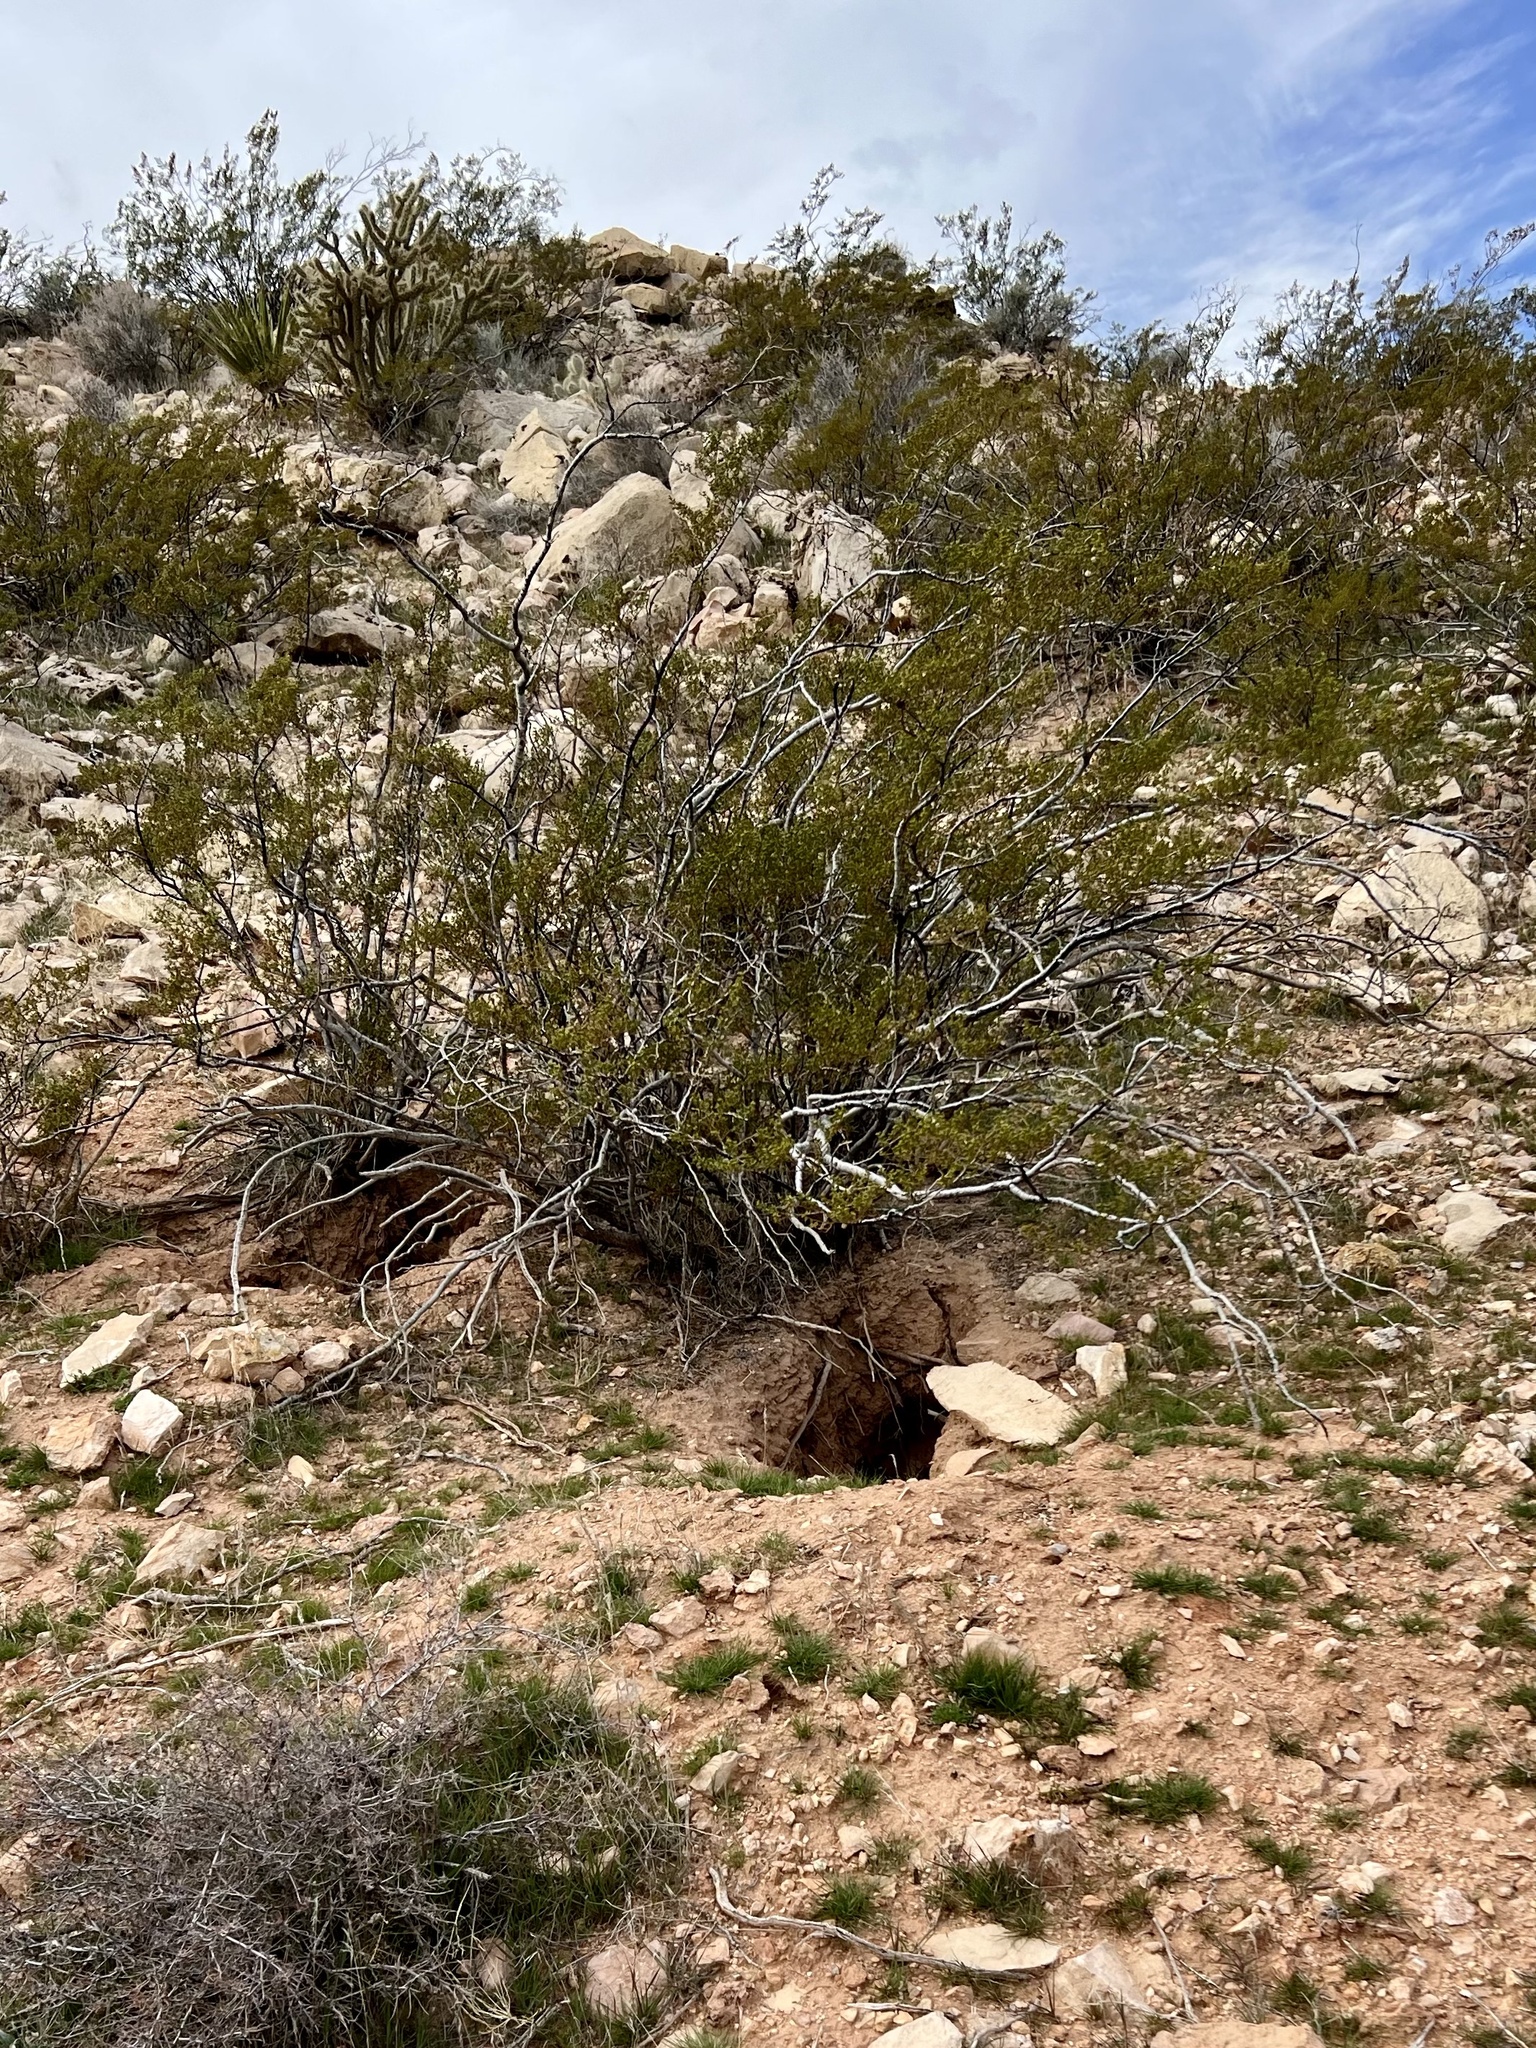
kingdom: Plantae
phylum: Tracheophyta
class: Magnoliopsida
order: Zygophyllales
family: Zygophyllaceae
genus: Larrea
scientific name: Larrea tridentata
